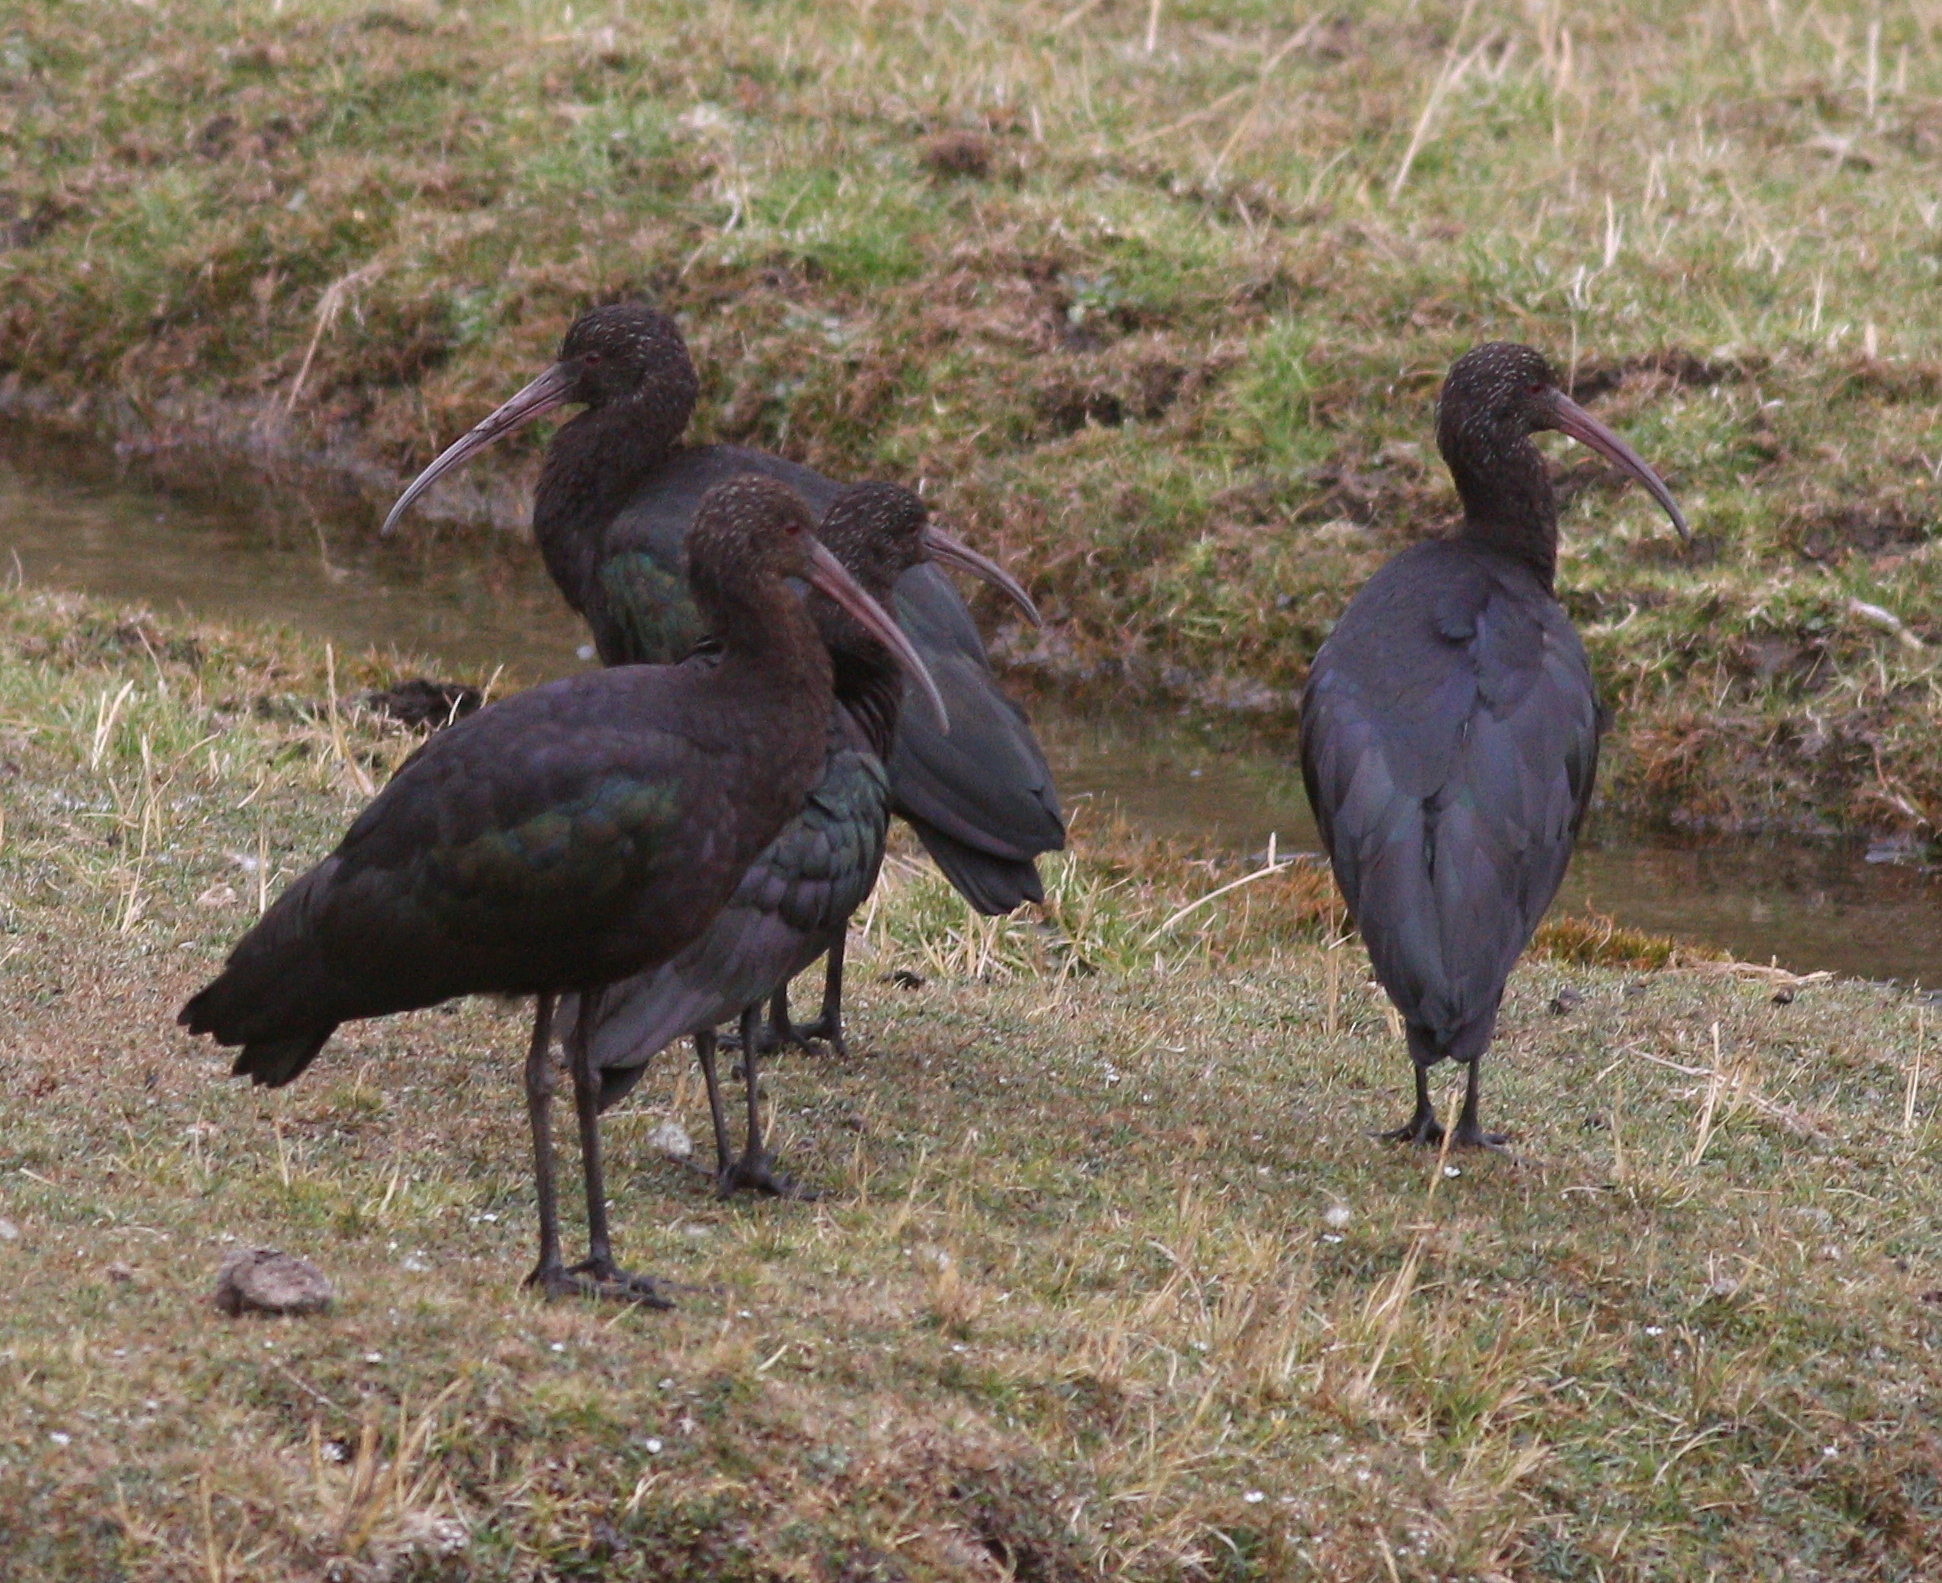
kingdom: Animalia
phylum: Chordata
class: Aves
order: Pelecaniformes
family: Threskiornithidae
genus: Plegadis
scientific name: Plegadis ridgwayi
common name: Puna ibis
